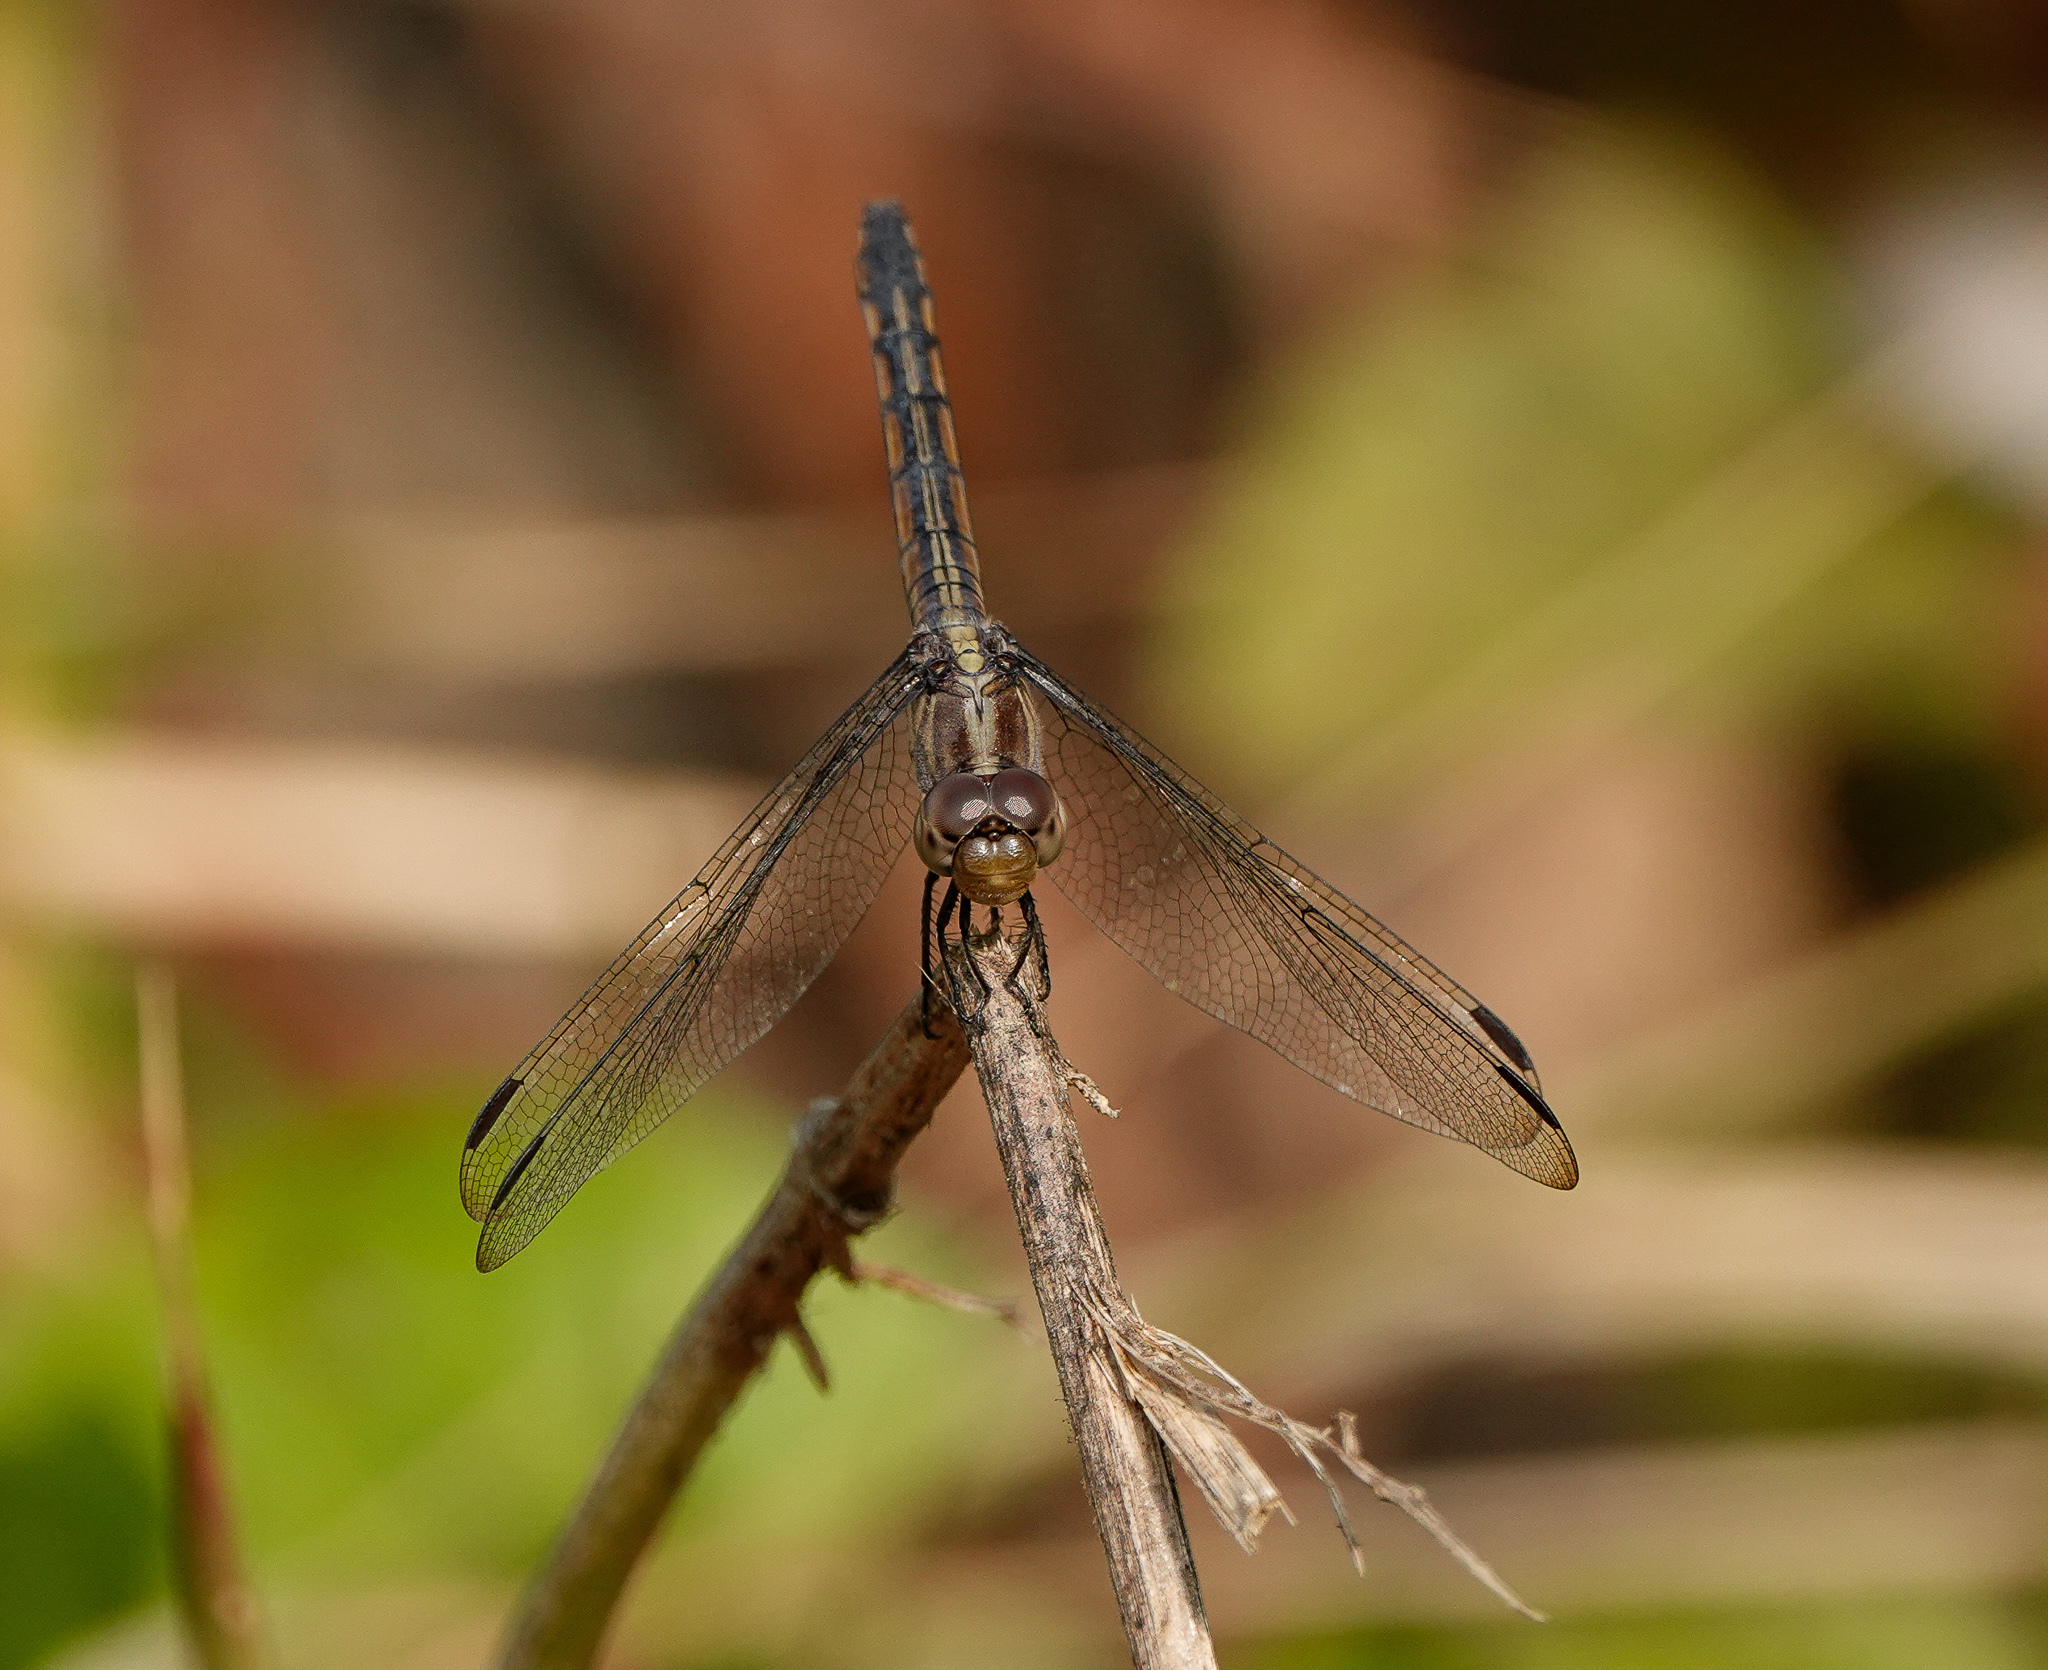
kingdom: Animalia
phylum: Arthropoda
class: Insecta
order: Odonata
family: Libellulidae
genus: Potamarcha
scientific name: Potamarcha congener
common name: Blue chaser
